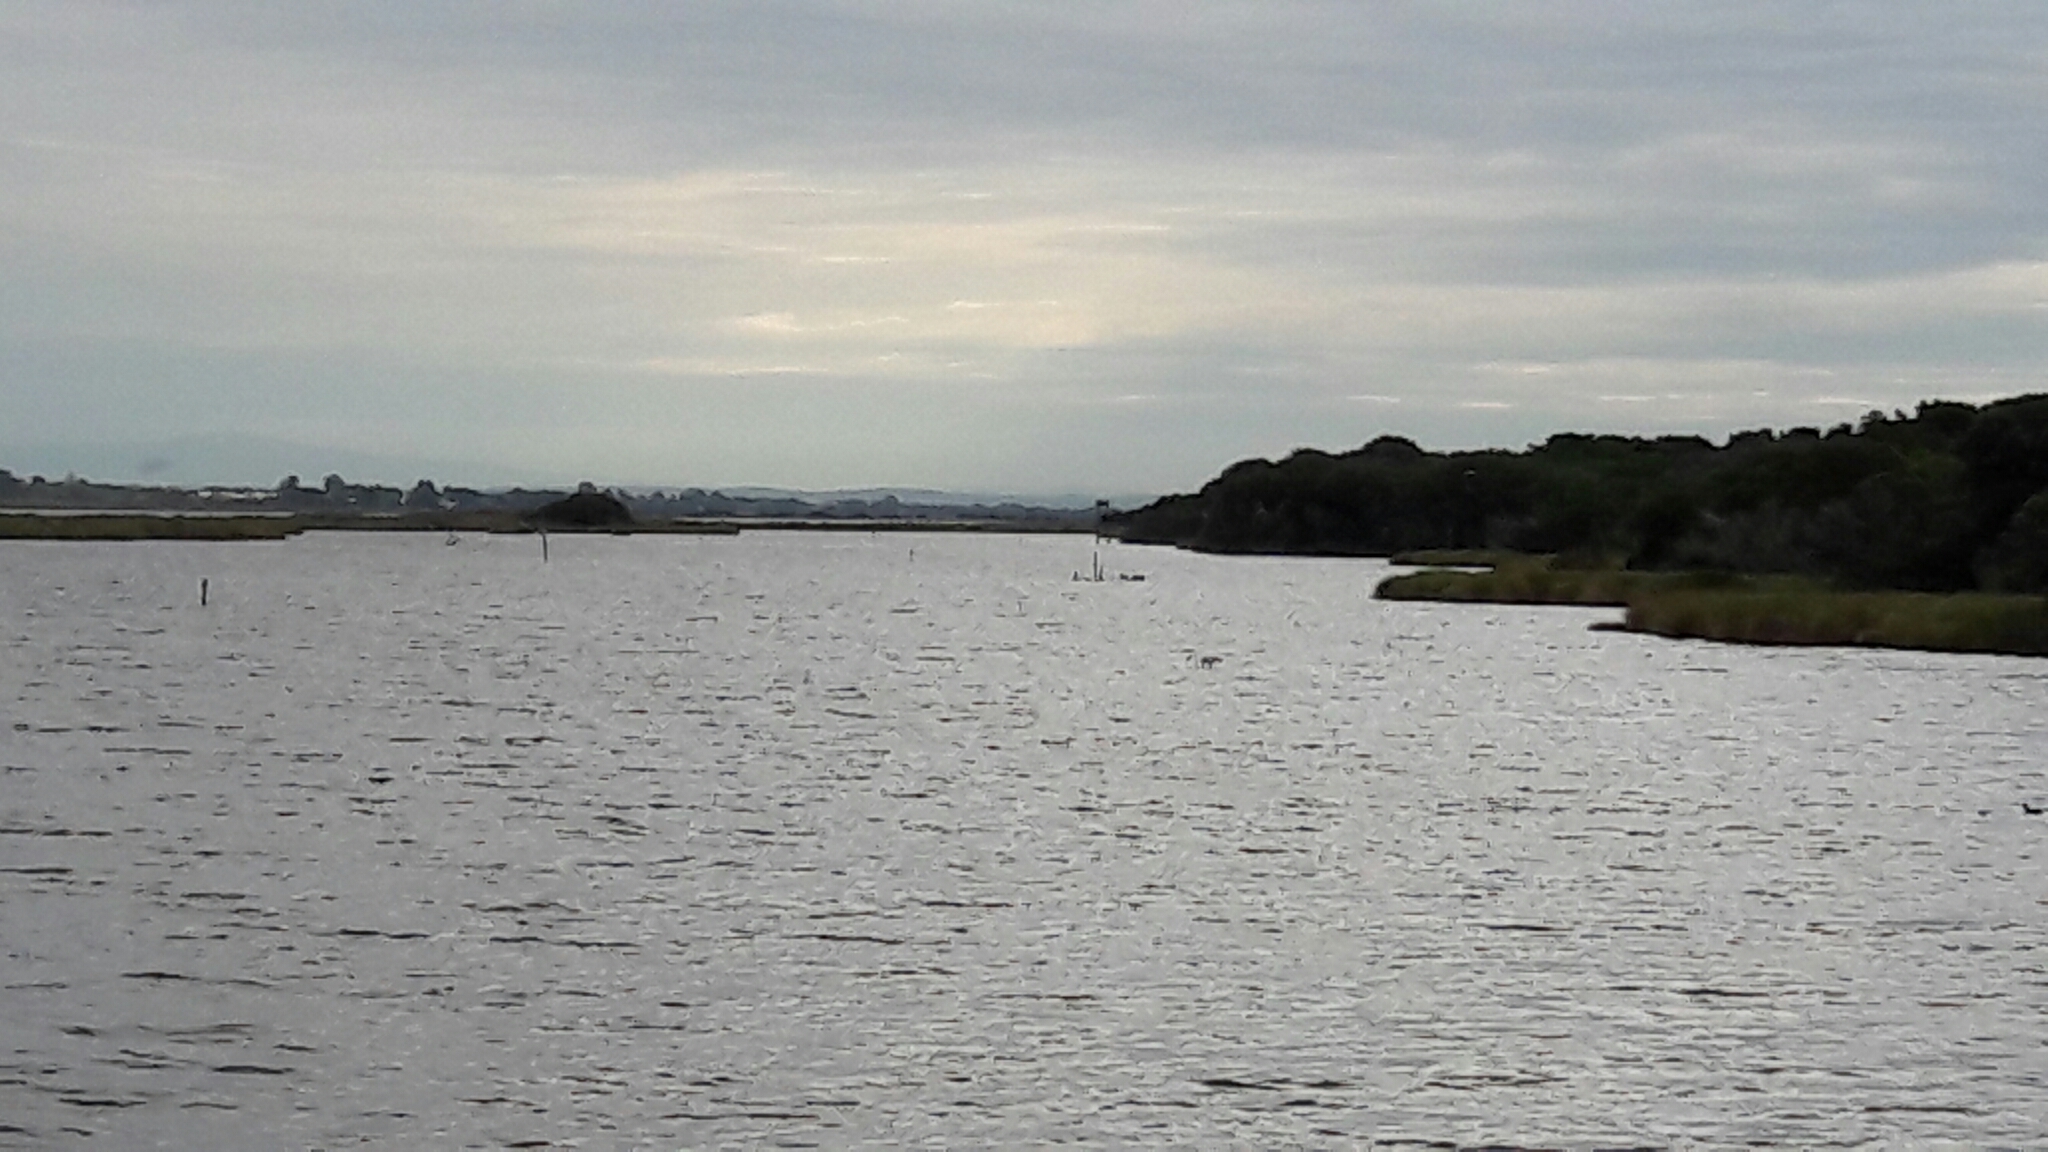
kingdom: Animalia
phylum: Chordata
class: Aves
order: Phoenicopteriformes
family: Phoenicopteridae
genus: Phoenicopterus
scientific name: Phoenicopterus roseus
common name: Greater flamingo
